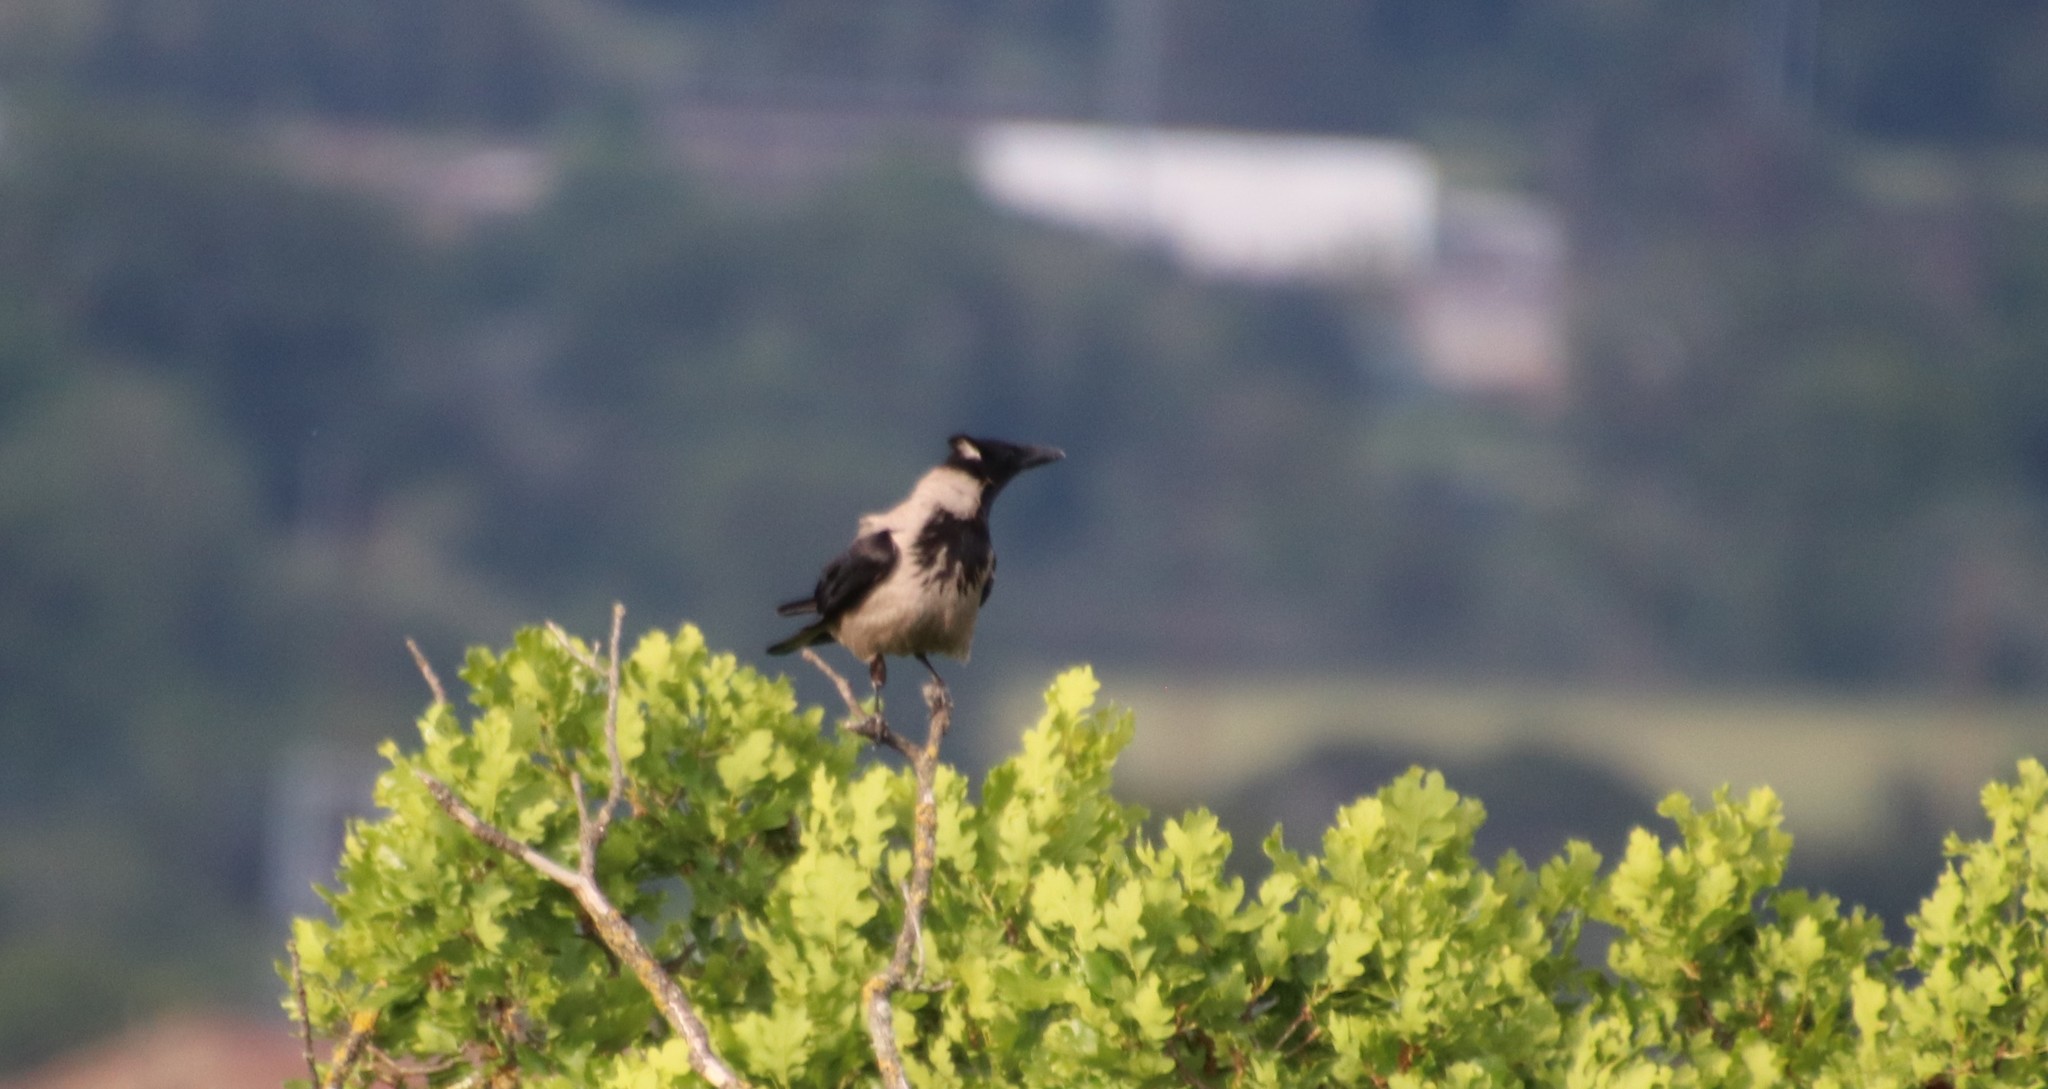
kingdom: Animalia
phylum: Chordata
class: Aves
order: Passeriformes
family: Corvidae
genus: Corvus
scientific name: Corvus cornix
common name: Hooded crow
